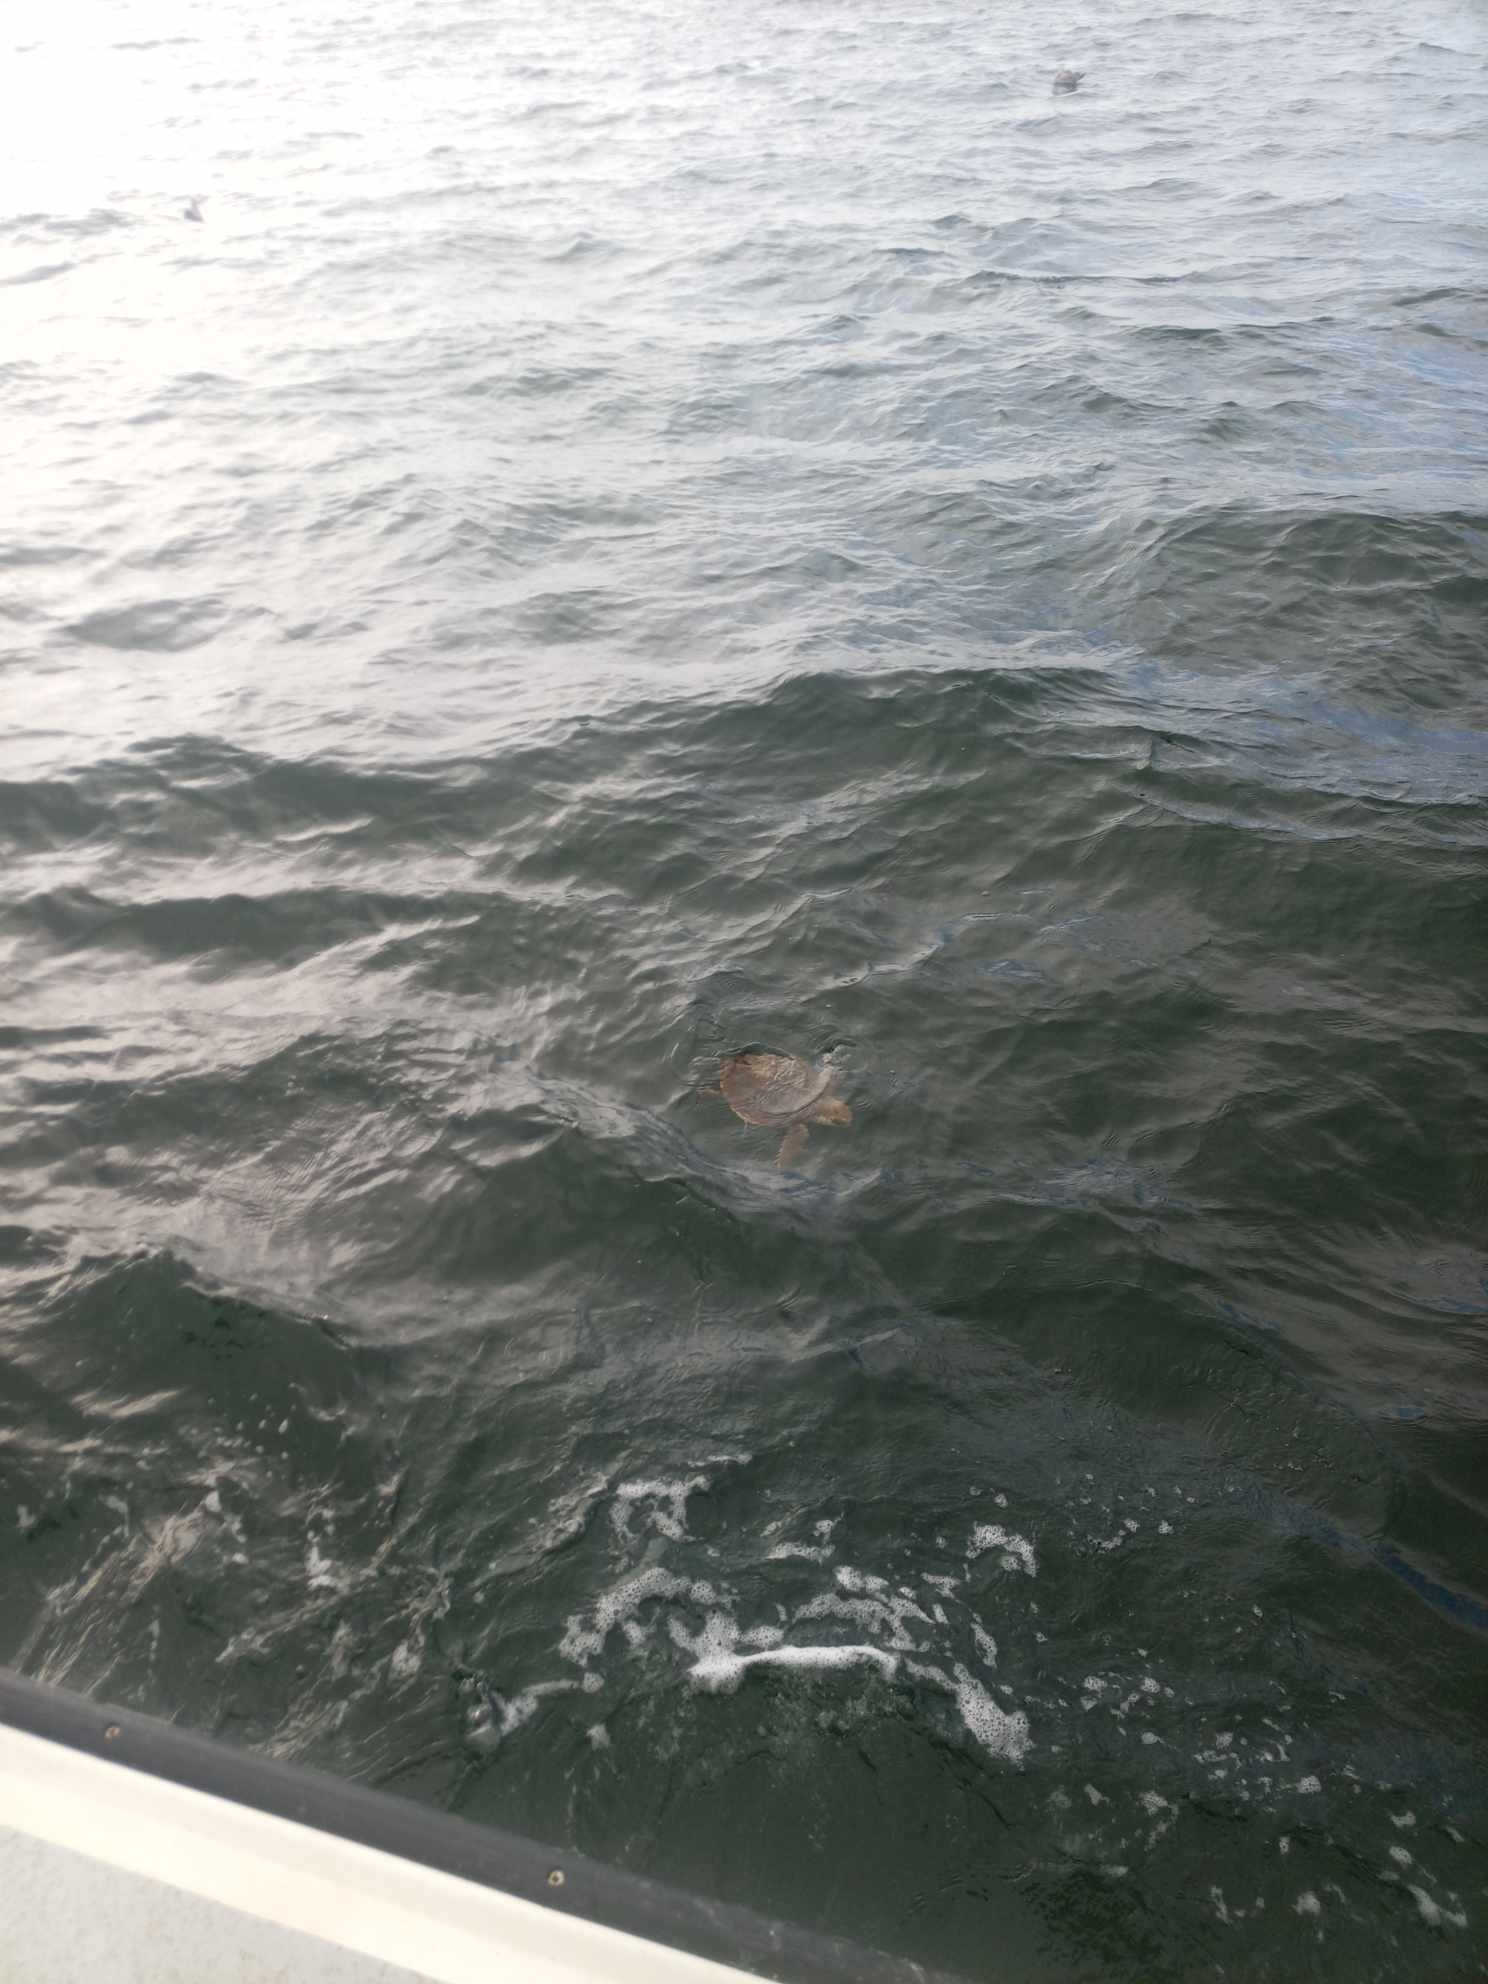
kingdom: Animalia
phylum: Chordata
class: Testudines
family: Cheloniidae
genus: Lepidochelys
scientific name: Lepidochelys kempii
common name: Kemp's ridley turtle
